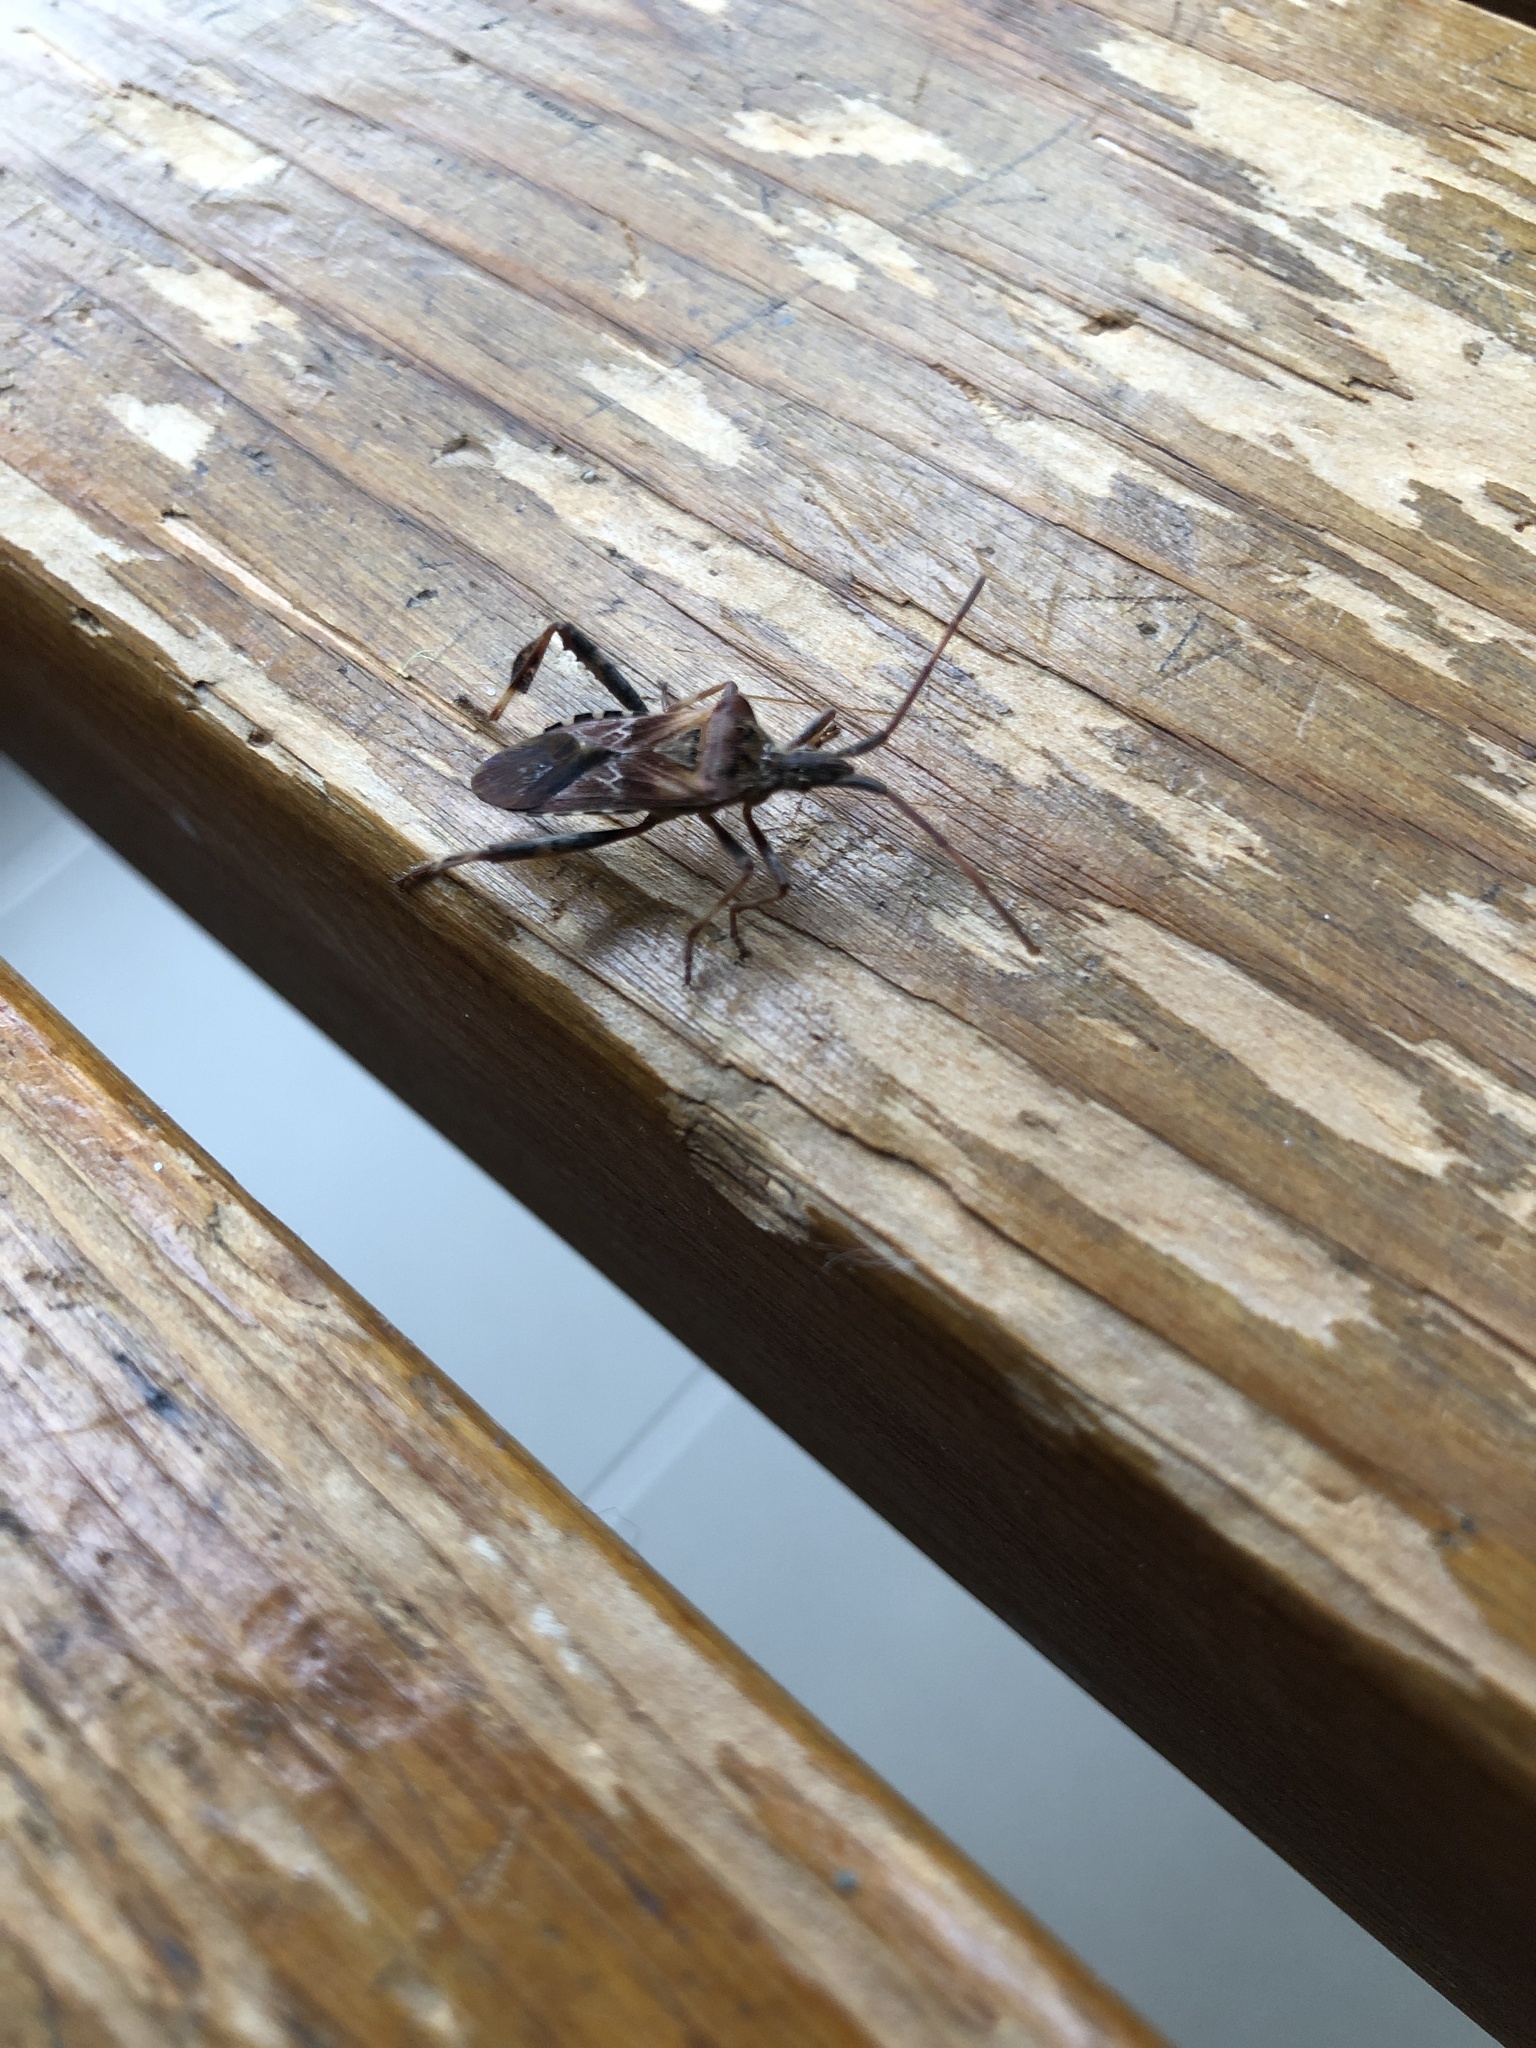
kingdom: Animalia
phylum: Arthropoda
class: Insecta
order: Hemiptera
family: Coreidae
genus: Leptoglossus
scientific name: Leptoglossus occidentalis
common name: Western conifer-seed bug
